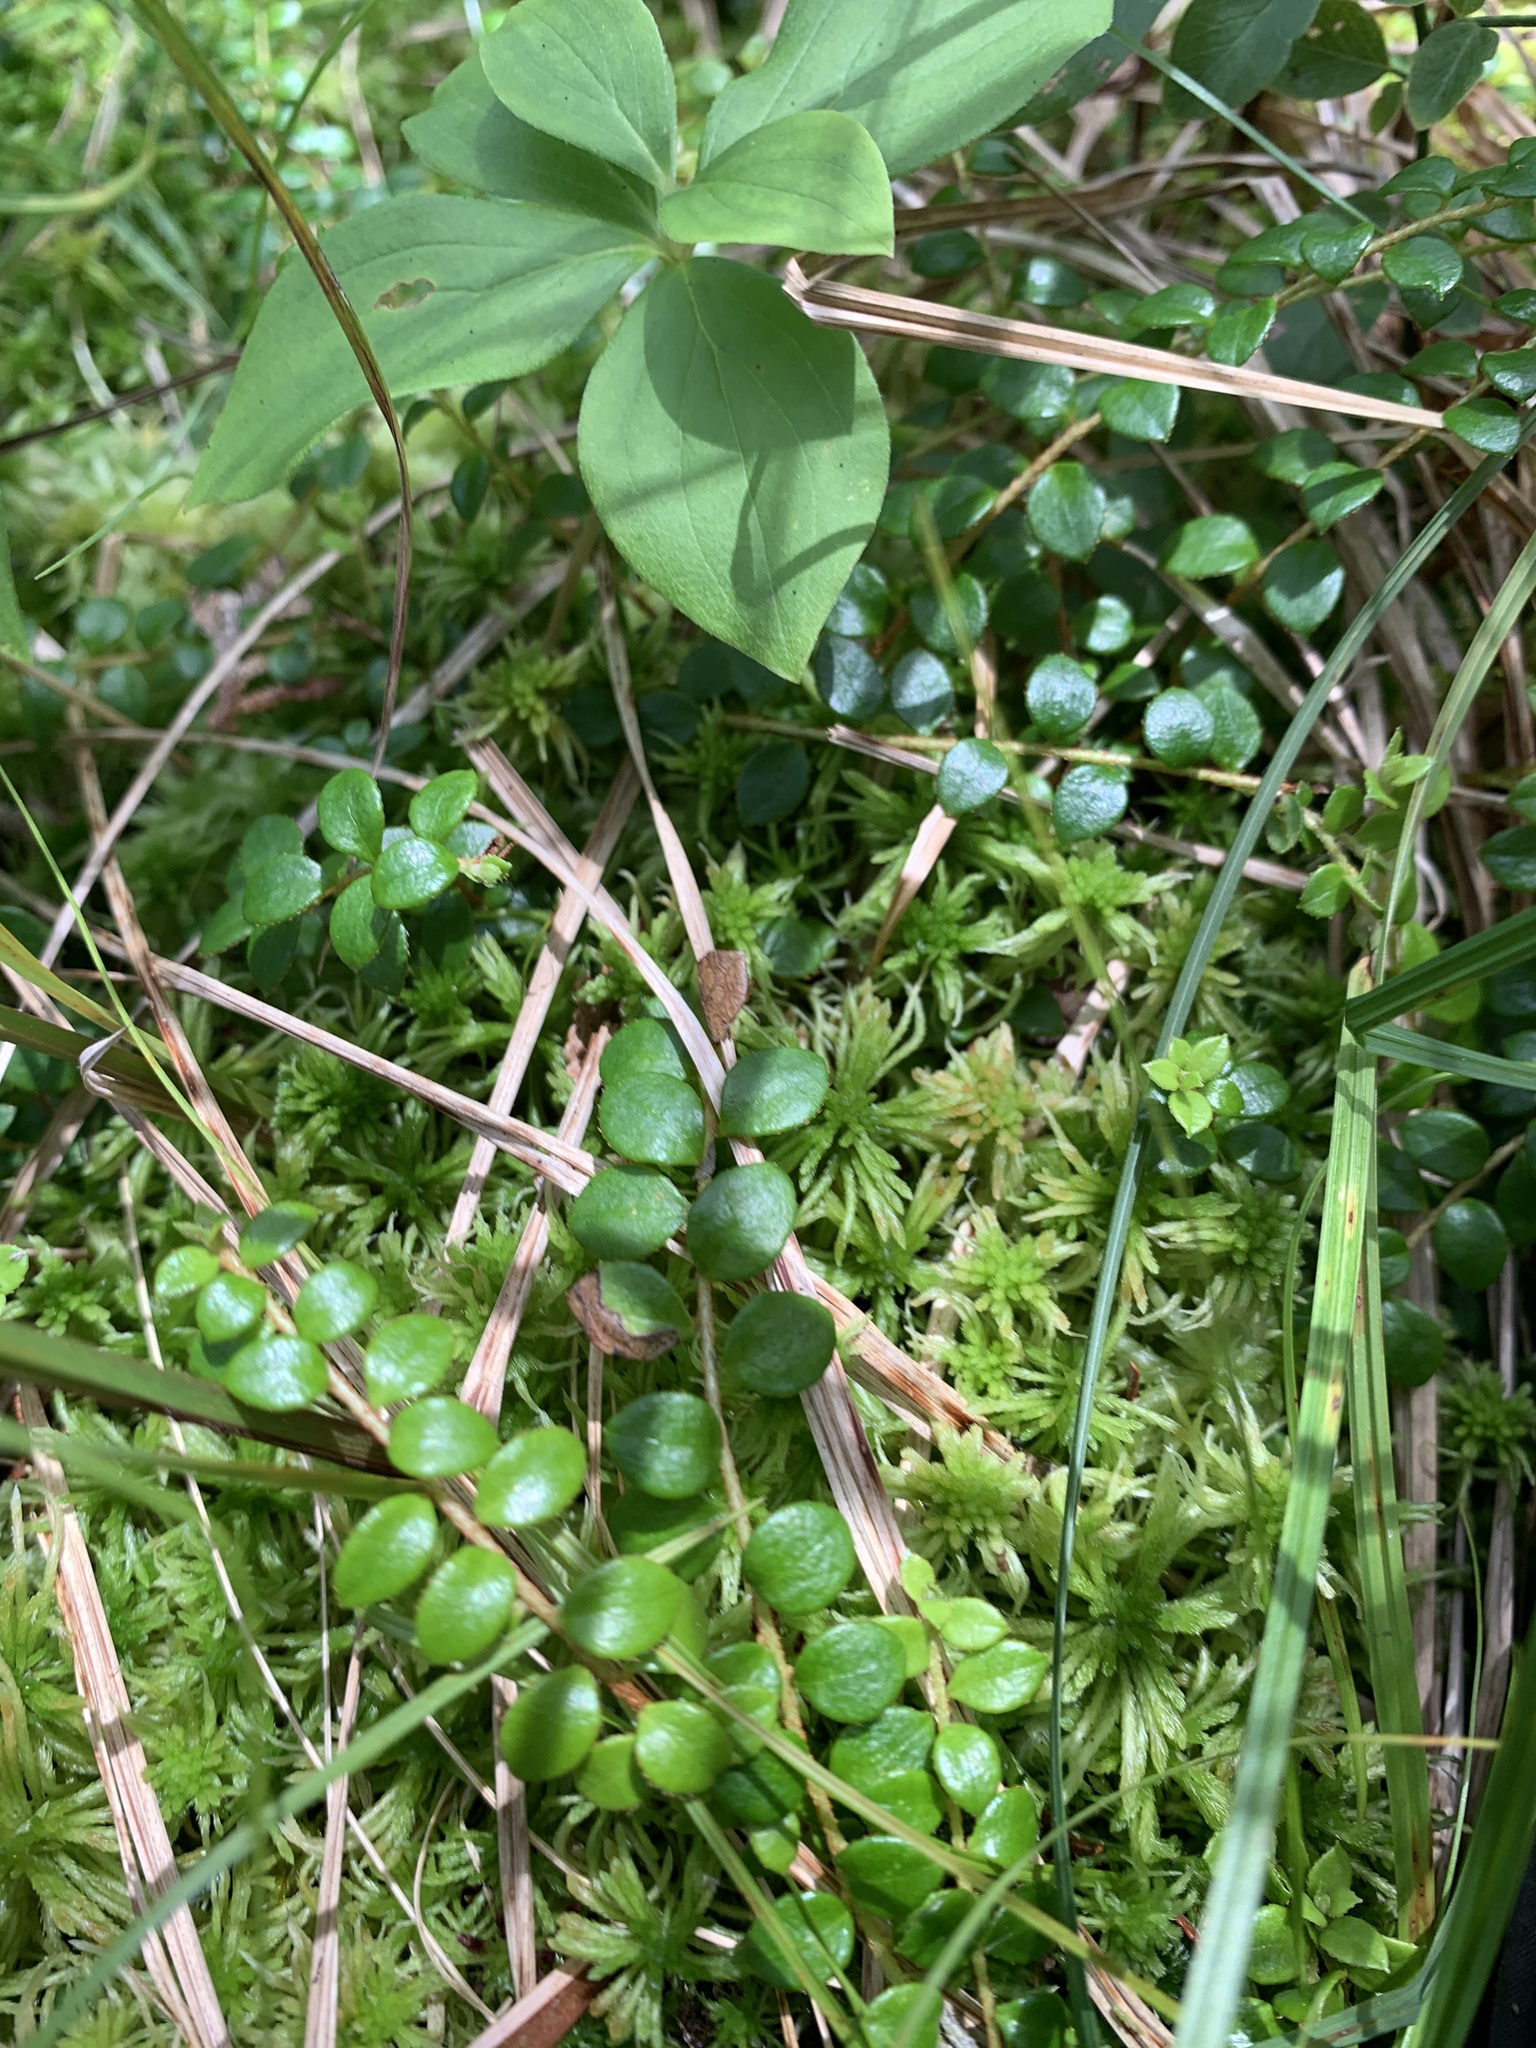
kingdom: Plantae
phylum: Tracheophyta
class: Magnoliopsida
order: Ericales
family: Ericaceae
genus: Gaultheria
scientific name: Gaultheria hispidula
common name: Cancer wintergreen
